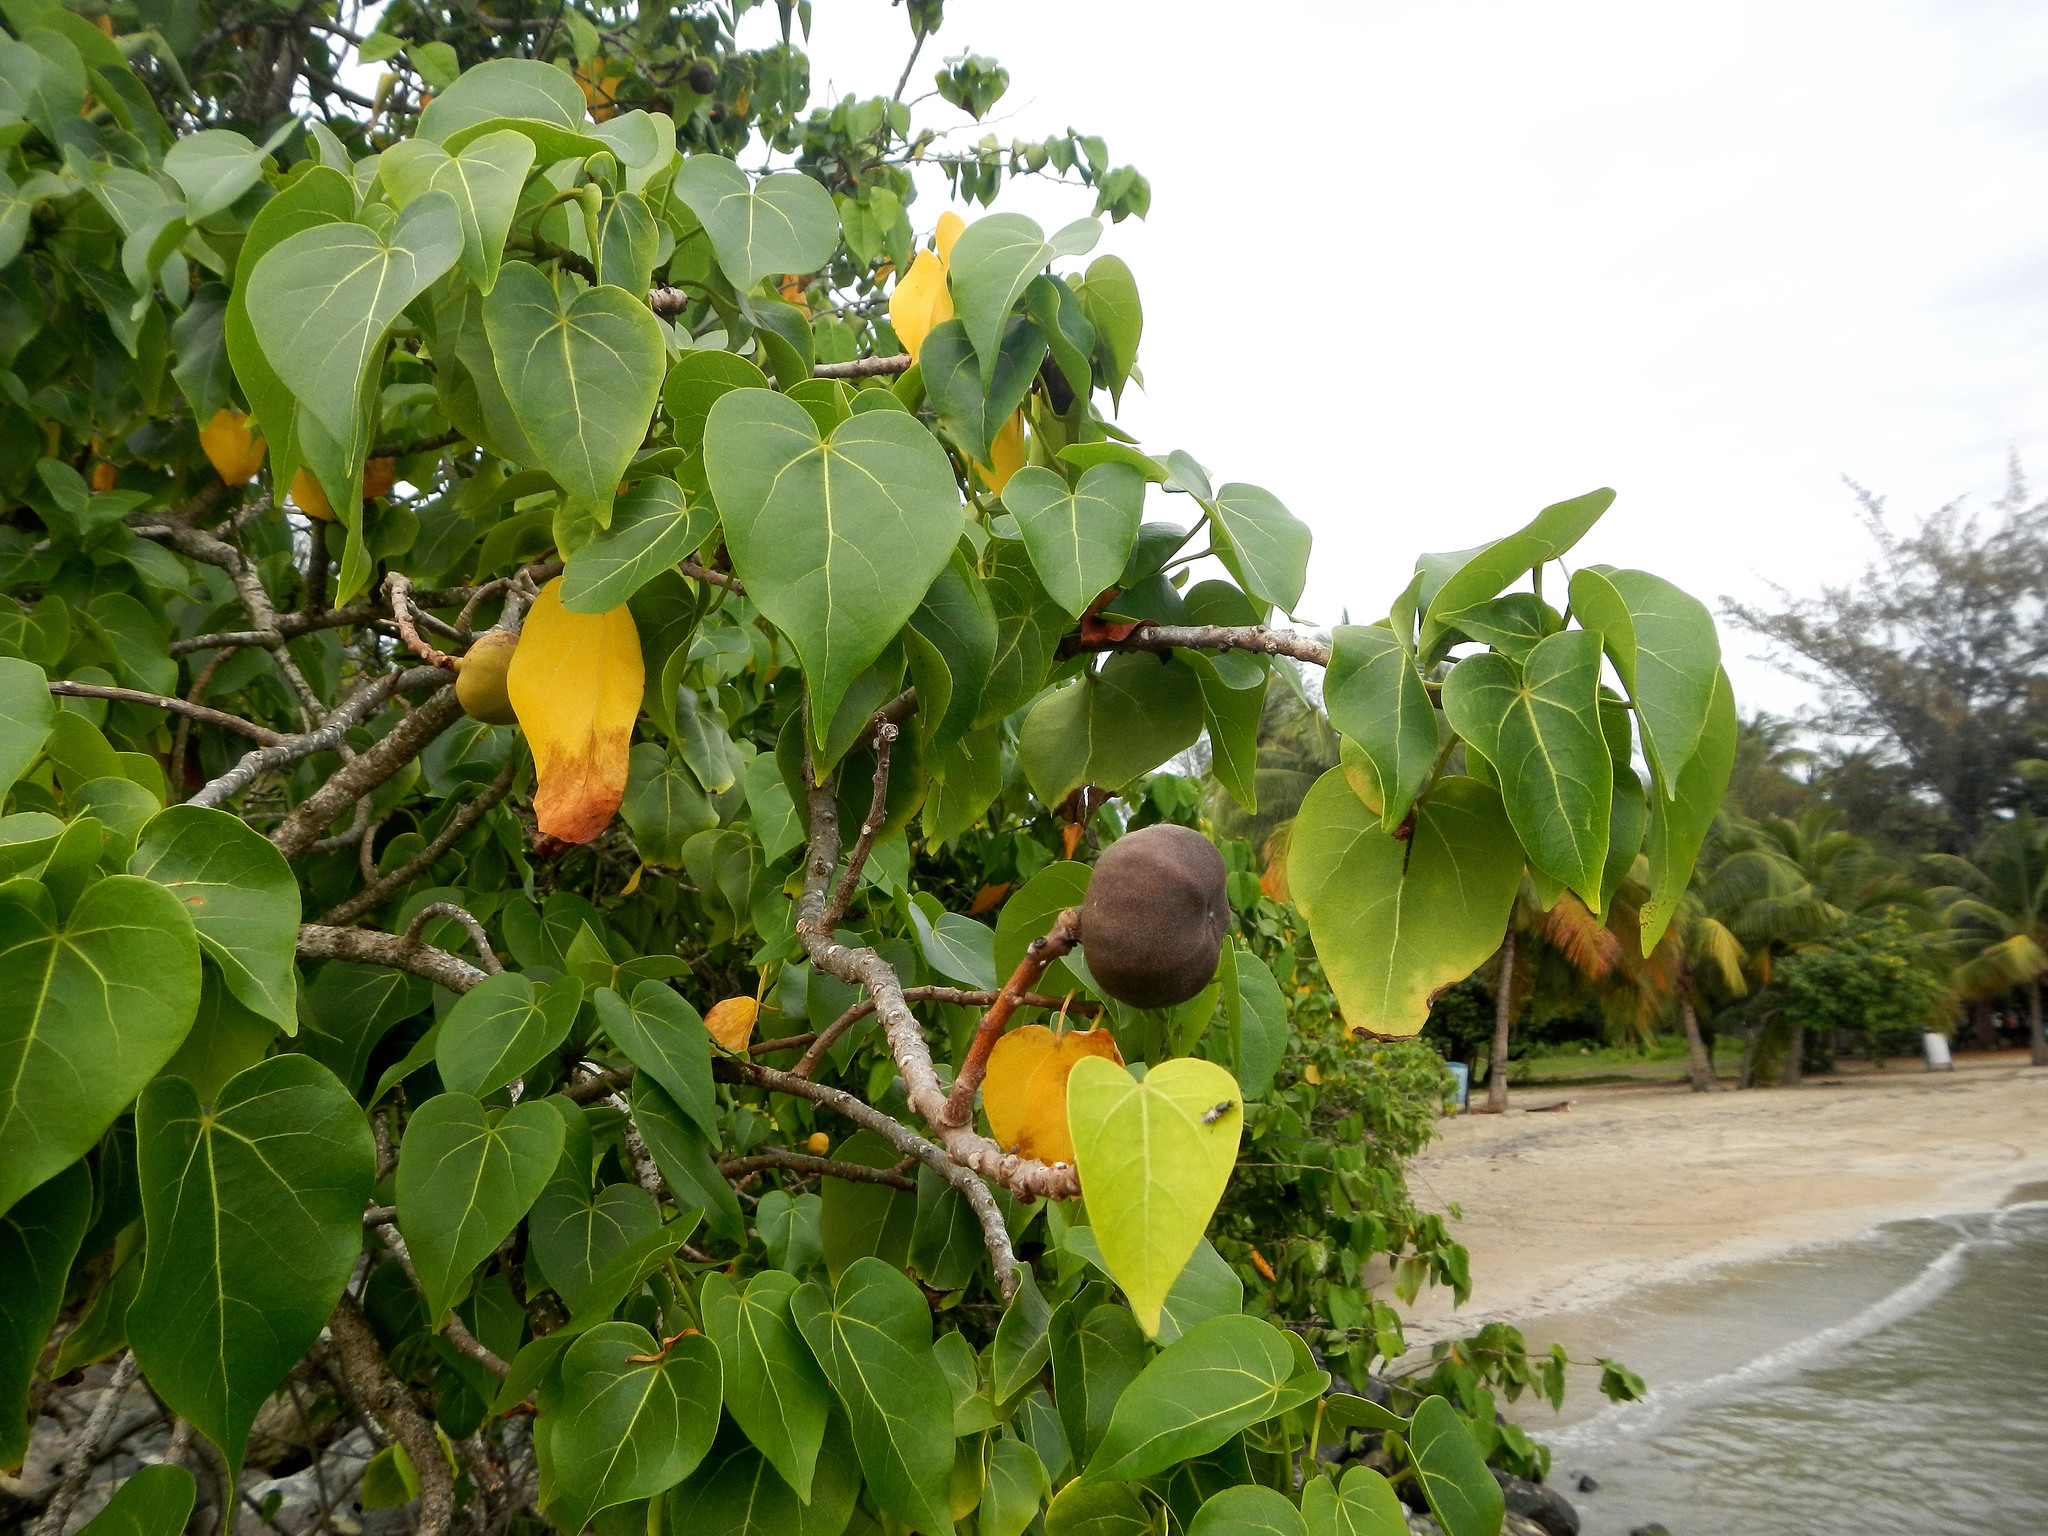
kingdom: Plantae
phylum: Tracheophyta
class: Magnoliopsida
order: Malvales
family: Malvaceae
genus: Thespesia
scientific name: Thespesia populnea
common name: Seaside mahoe
